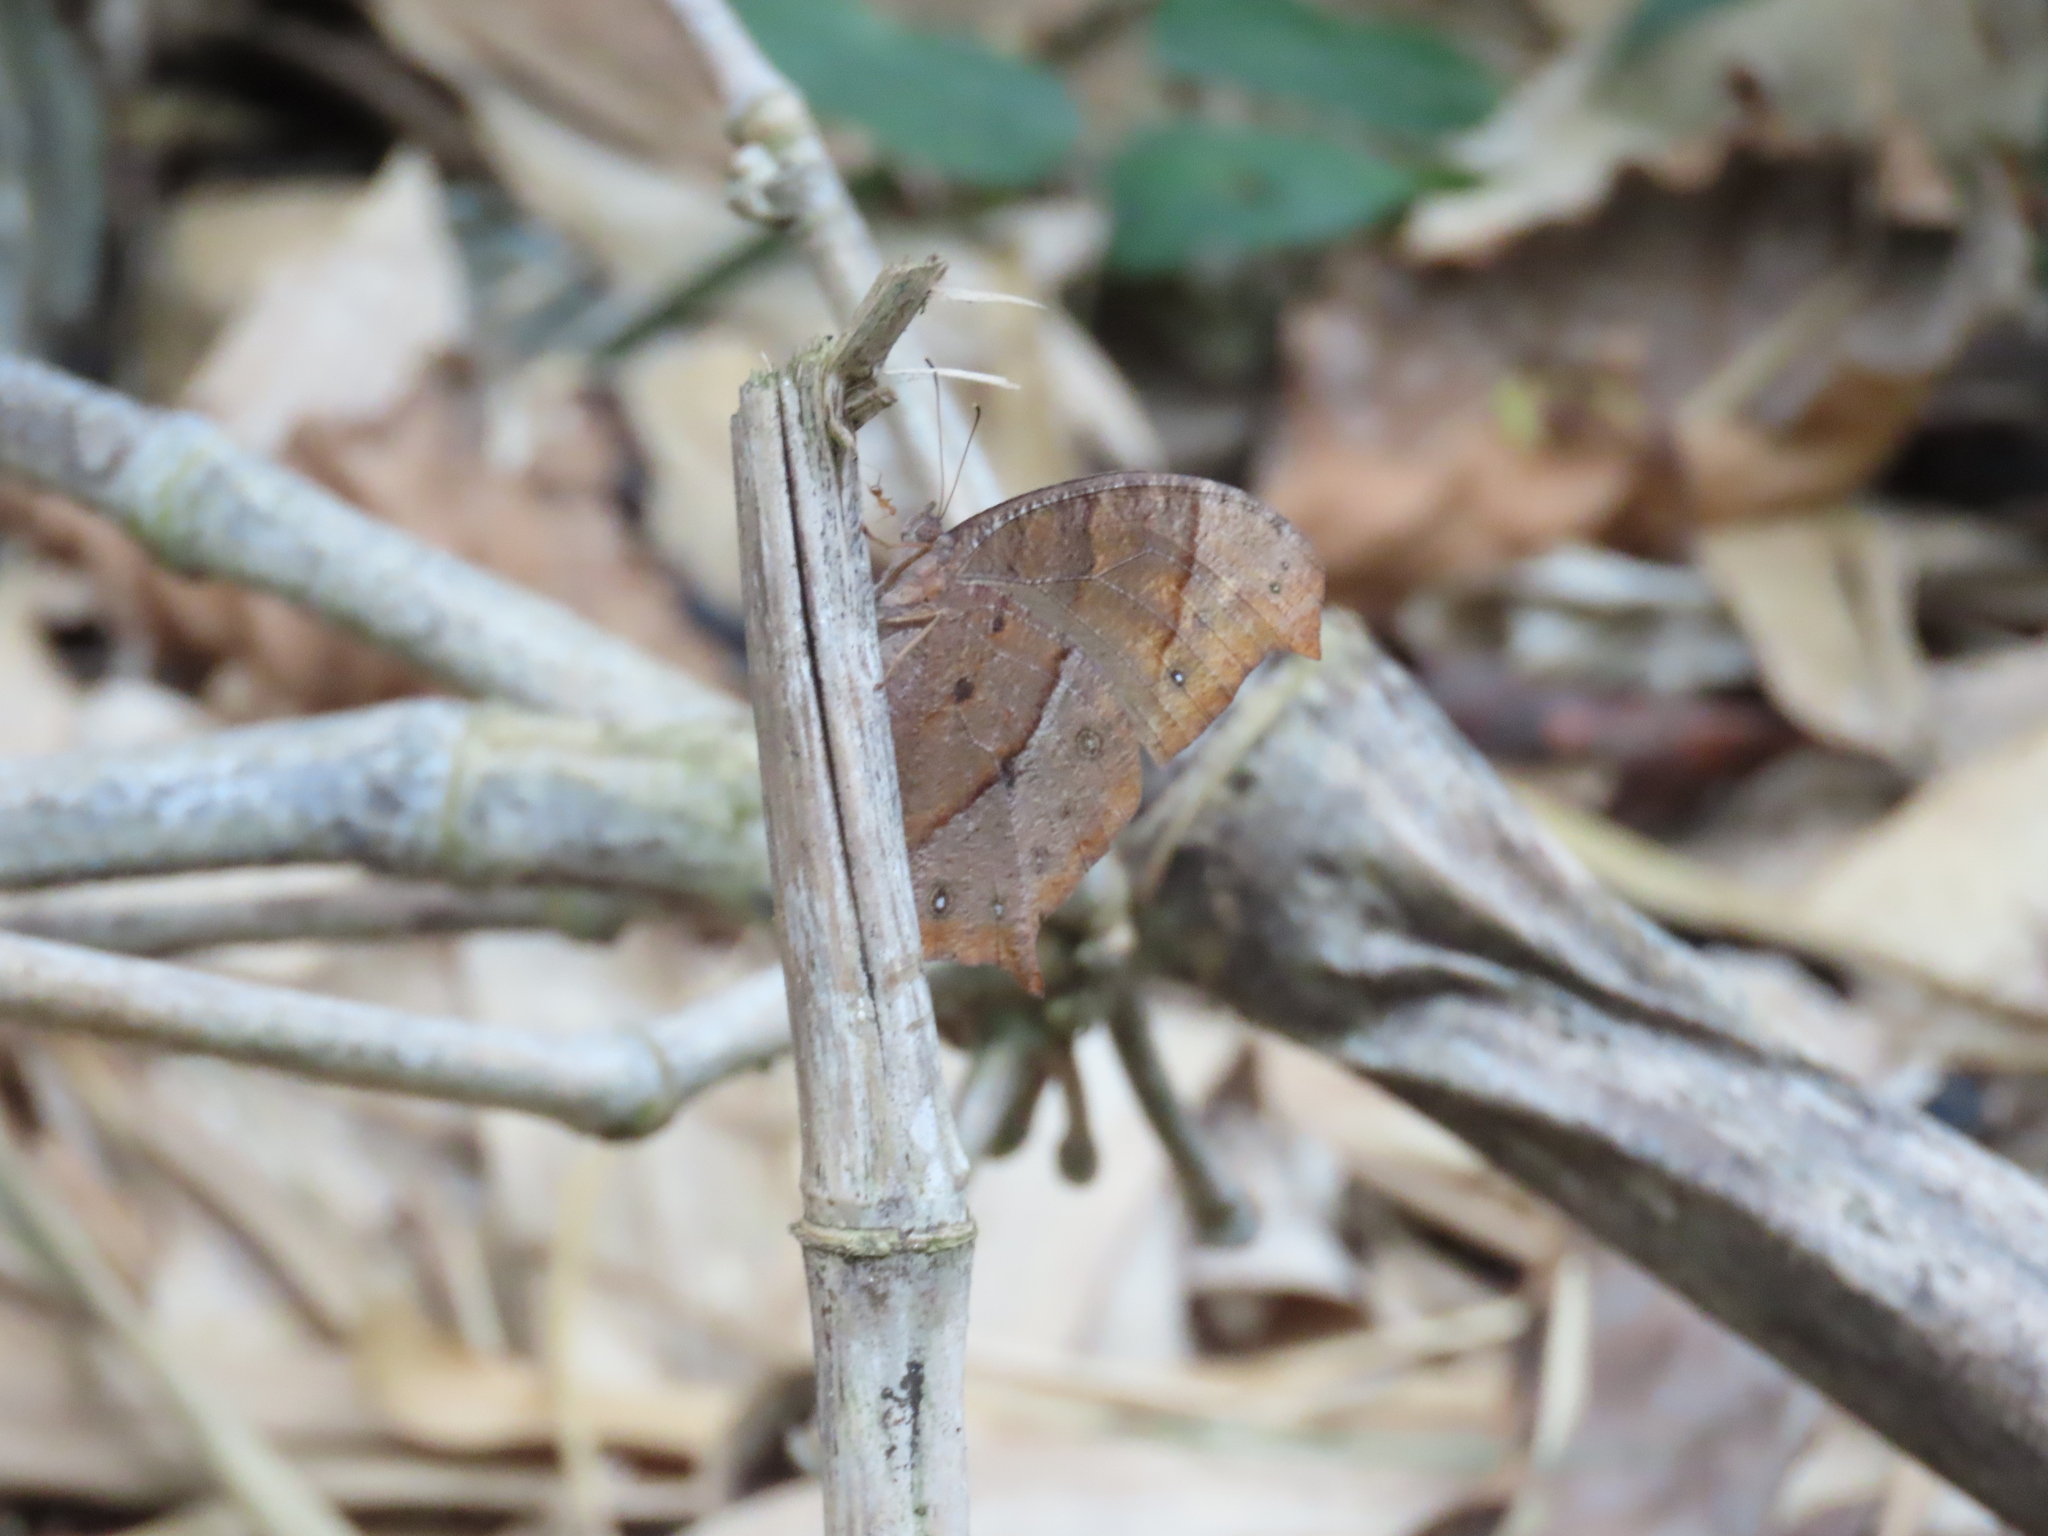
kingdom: Animalia
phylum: Arthropoda
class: Insecta
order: Lepidoptera
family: Nymphalidae
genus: Melanitis
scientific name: Melanitis phedima
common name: Dark evening brown
